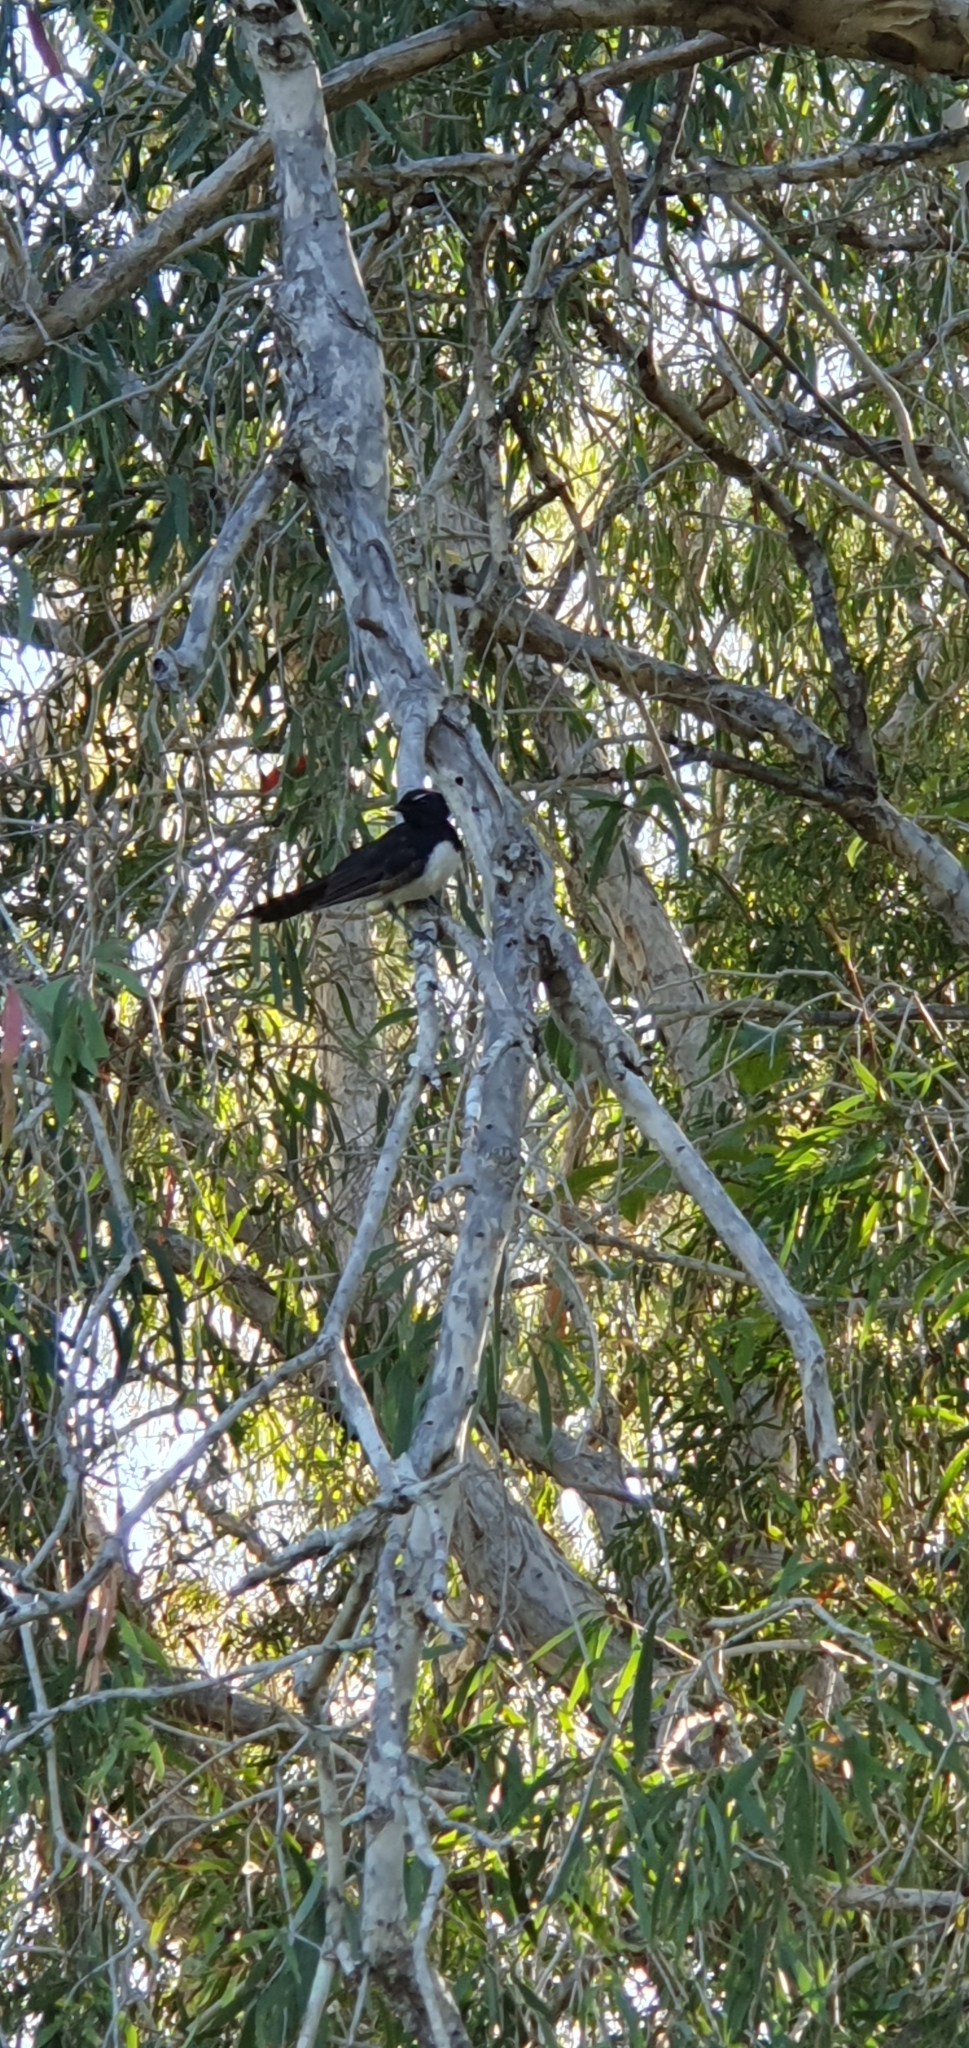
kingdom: Animalia
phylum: Chordata
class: Aves
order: Passeriformes
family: Rhipiduridae
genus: Rhipidura
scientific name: Rhipidura leucophrys
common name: Willie wagtail
